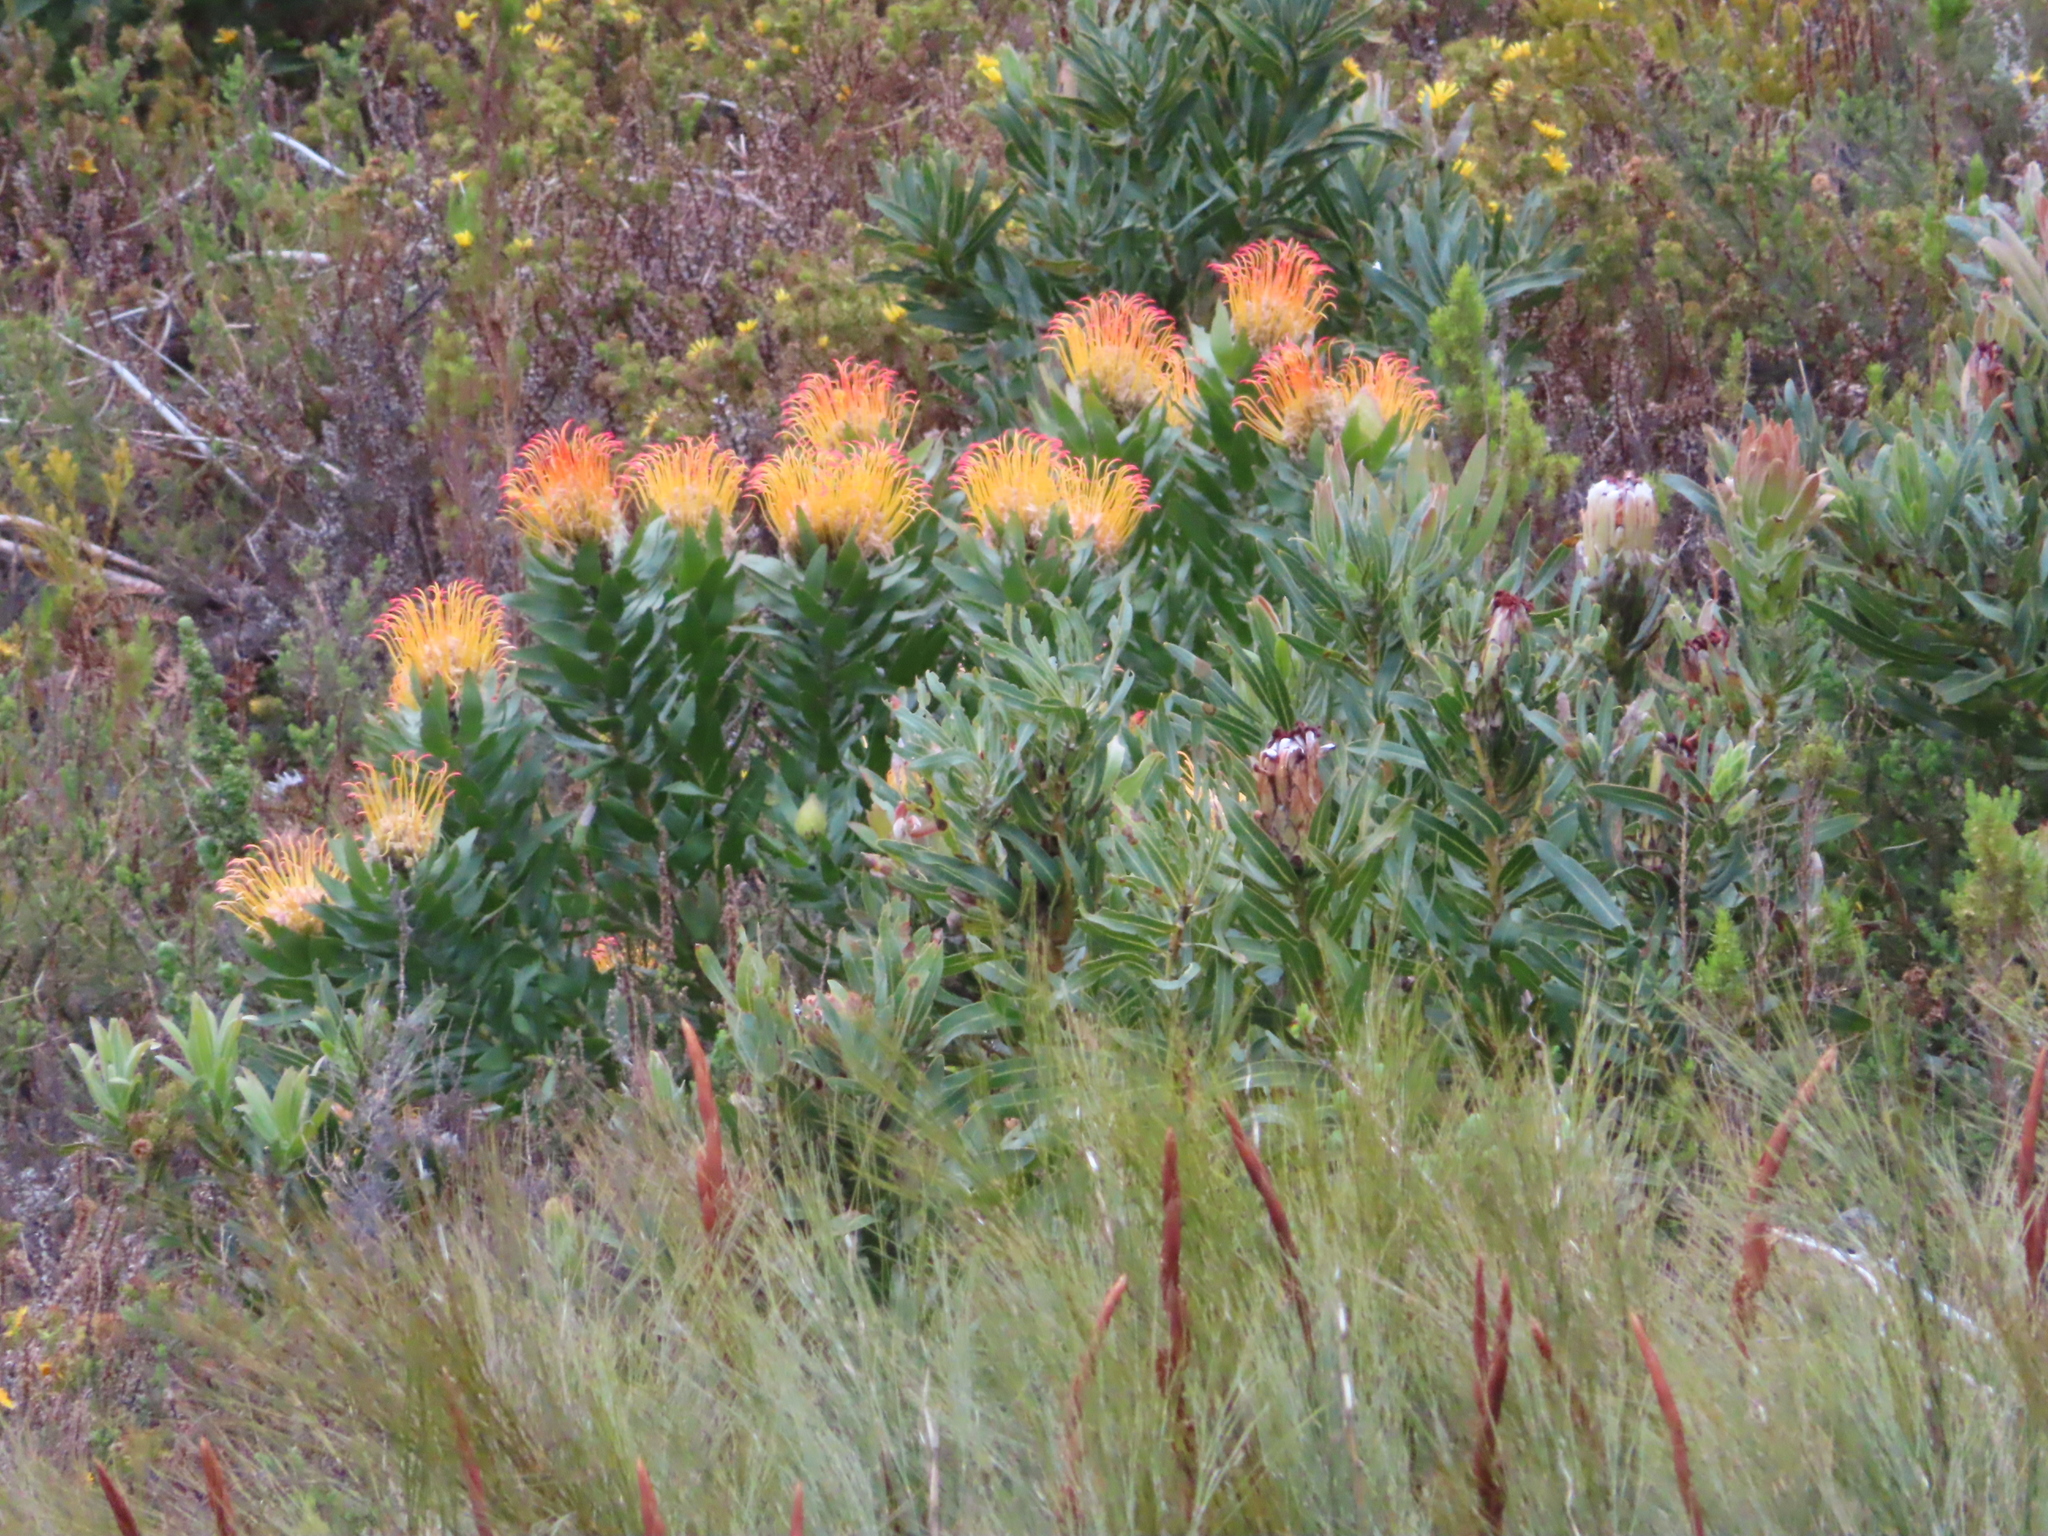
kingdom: Plantae
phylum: Tracheophyta
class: Magnoliopsida
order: Proteales
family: Proteaceae
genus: Leucospermum
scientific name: Leucospermum gueinzii
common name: Kloof fountain pincushion
